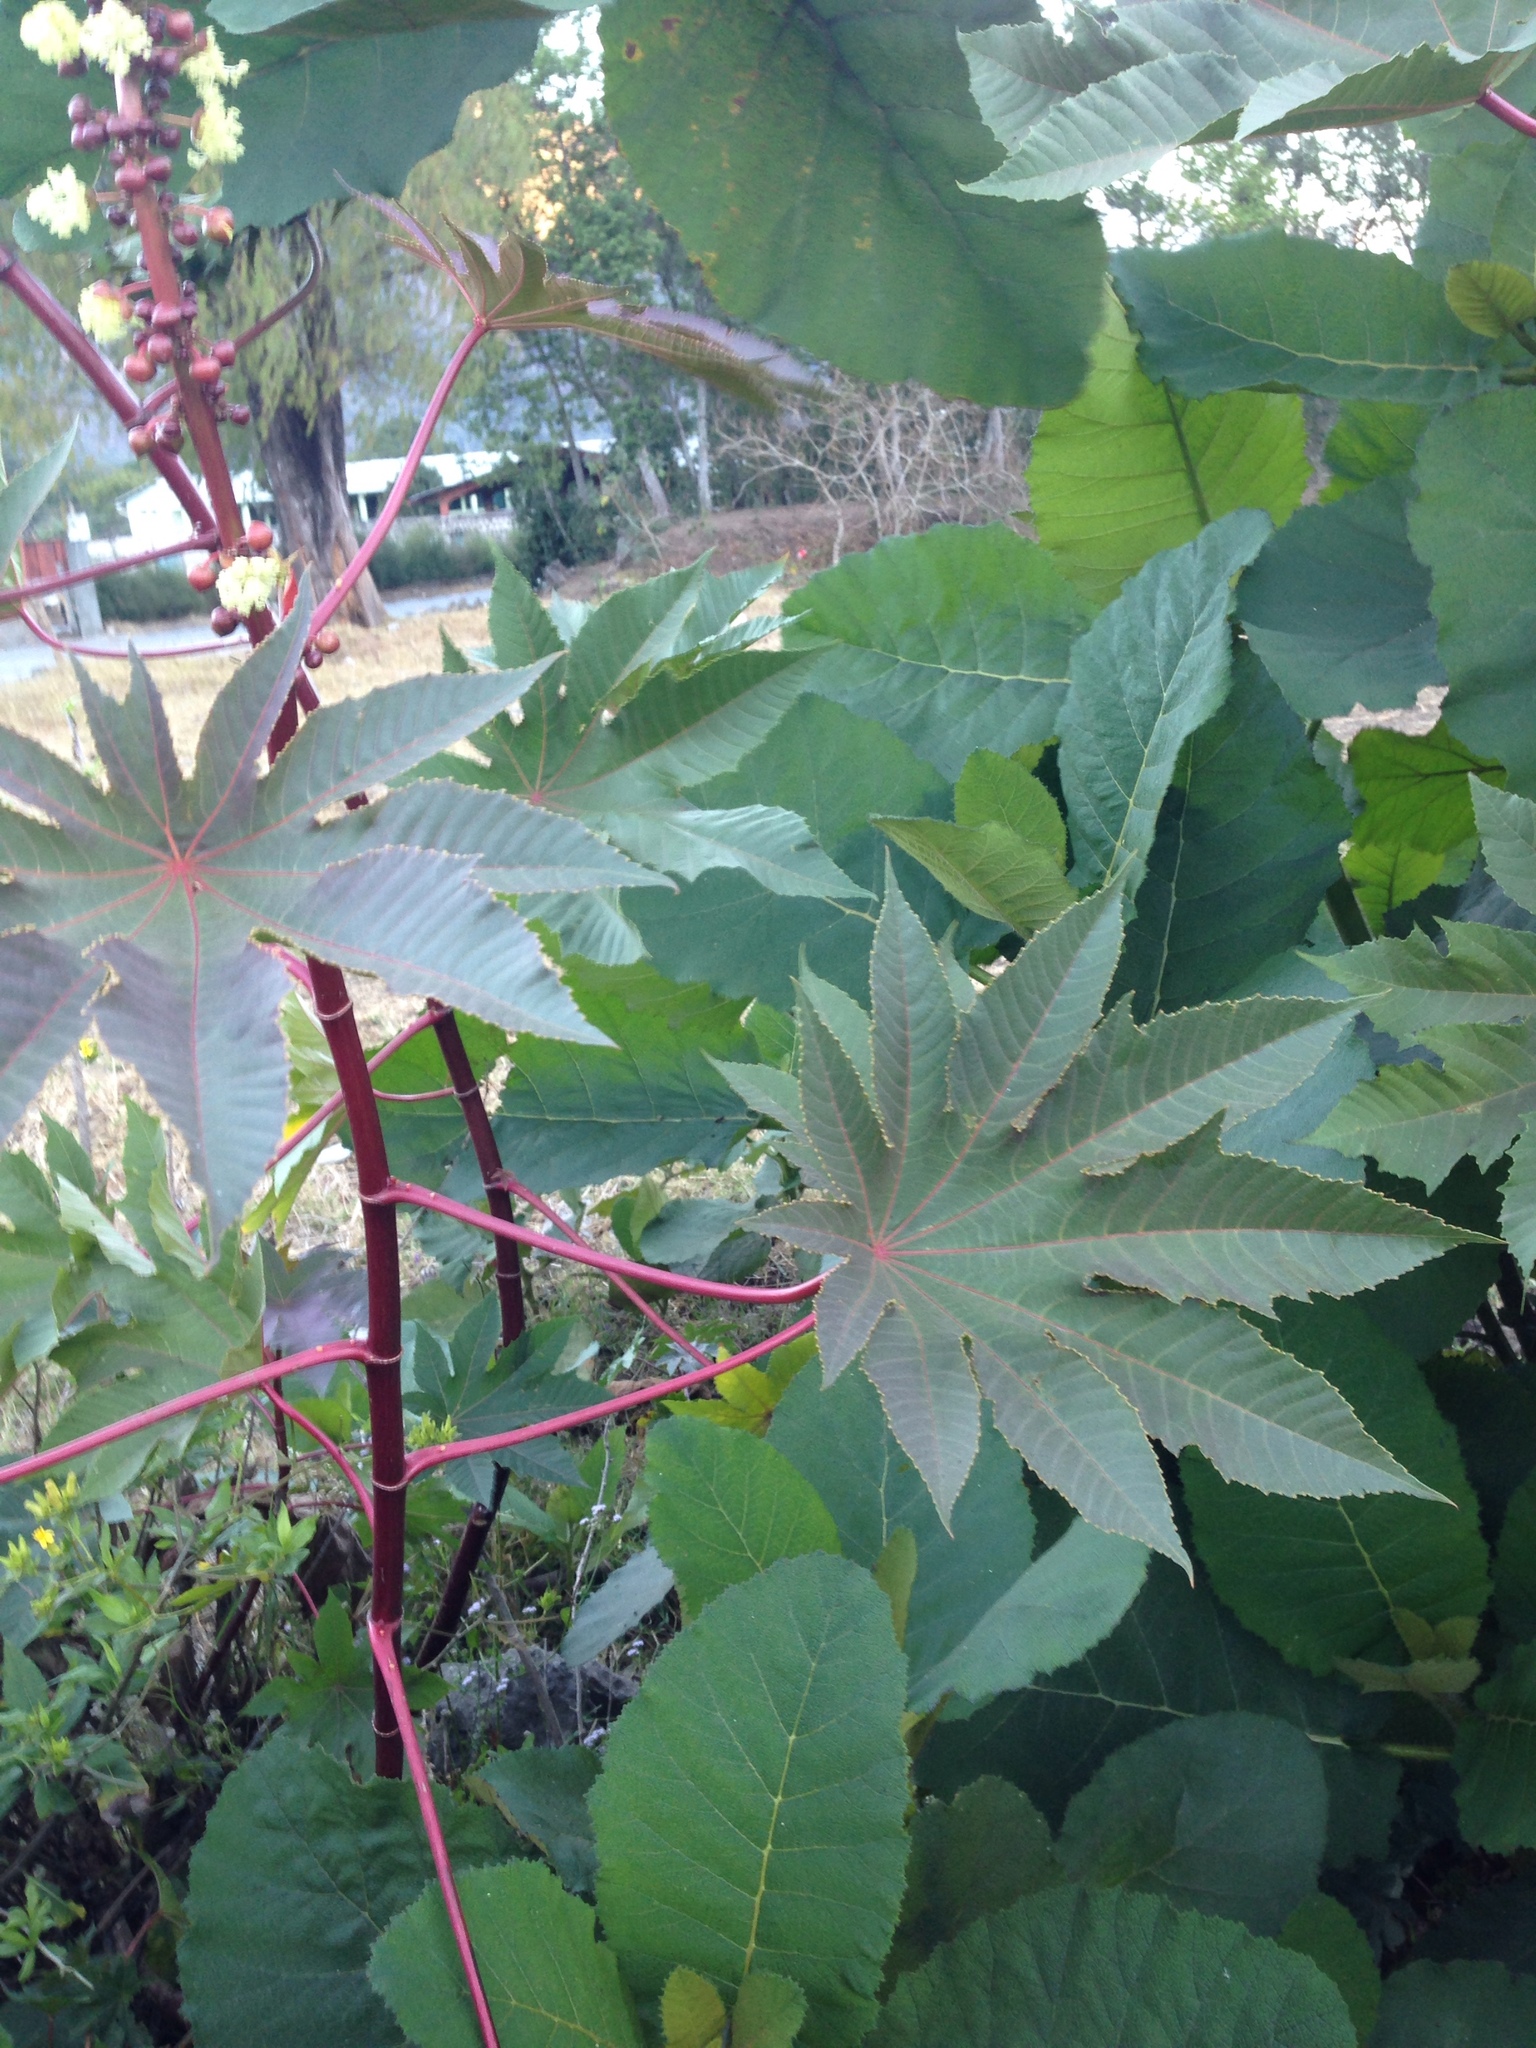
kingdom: Plantae
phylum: Tracheophyta
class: Magnoliopsida
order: Malpighiales
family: Euphorbiaceae
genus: Ricinus
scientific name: Ricinus communis
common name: Castor-oil-plant
